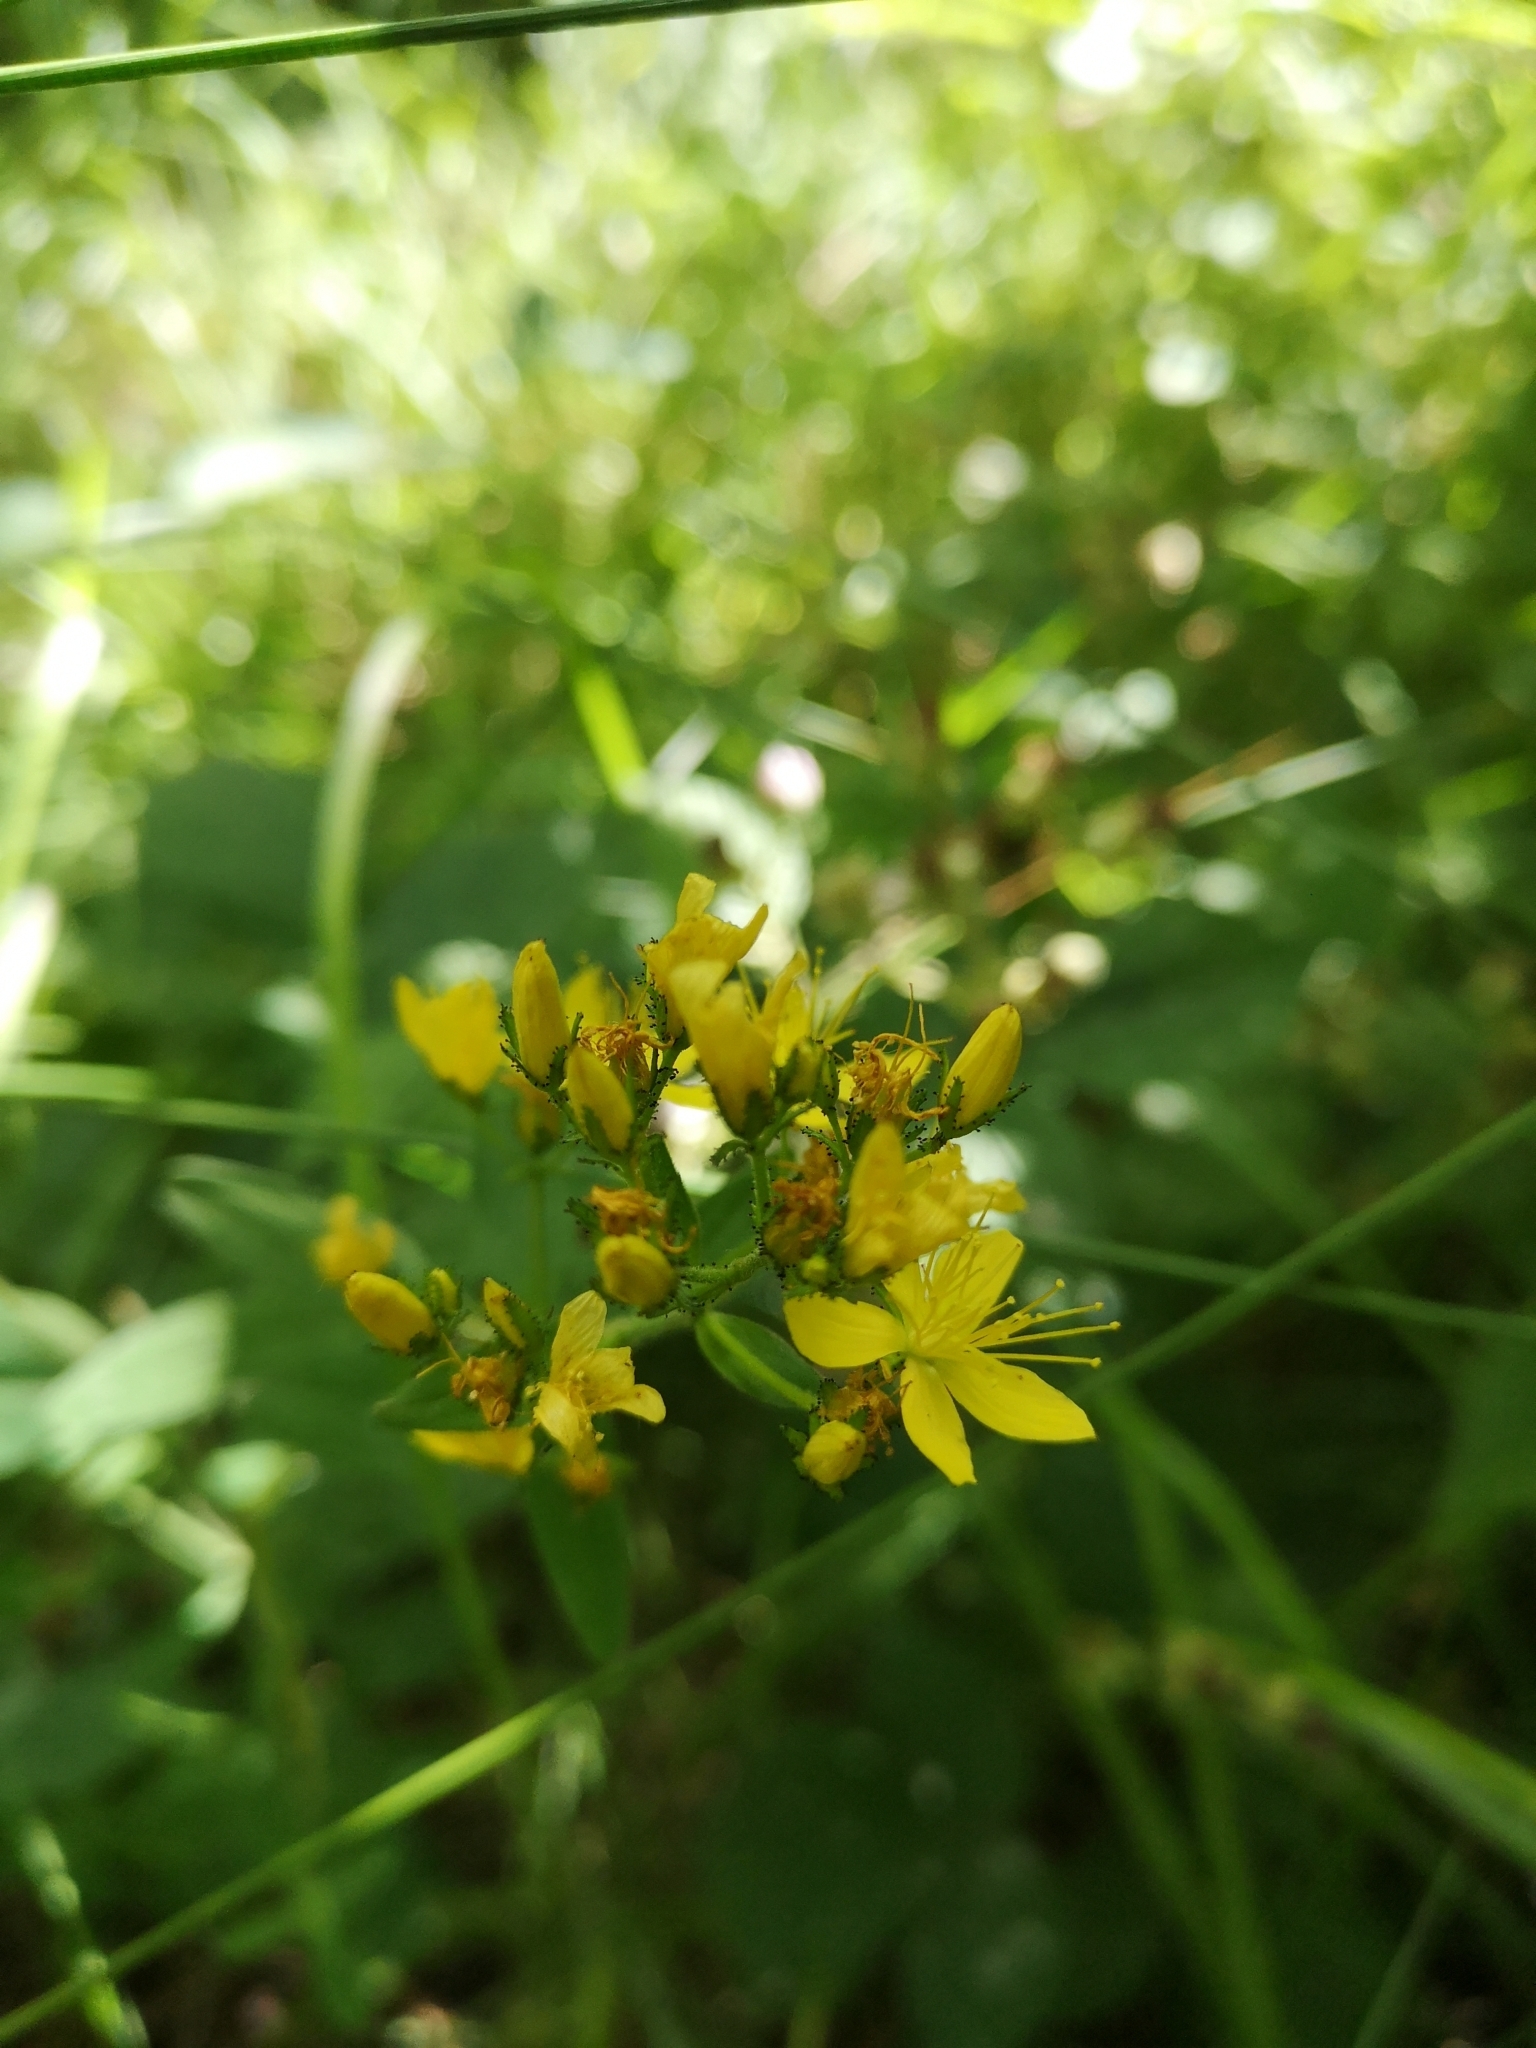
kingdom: Plantae
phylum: Tracheophyta
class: Magnoliopsida
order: Malpighiales
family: Hypericaceae
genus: Hypericum
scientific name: Hypericum hirsutum
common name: Hairy st. john's-wort
